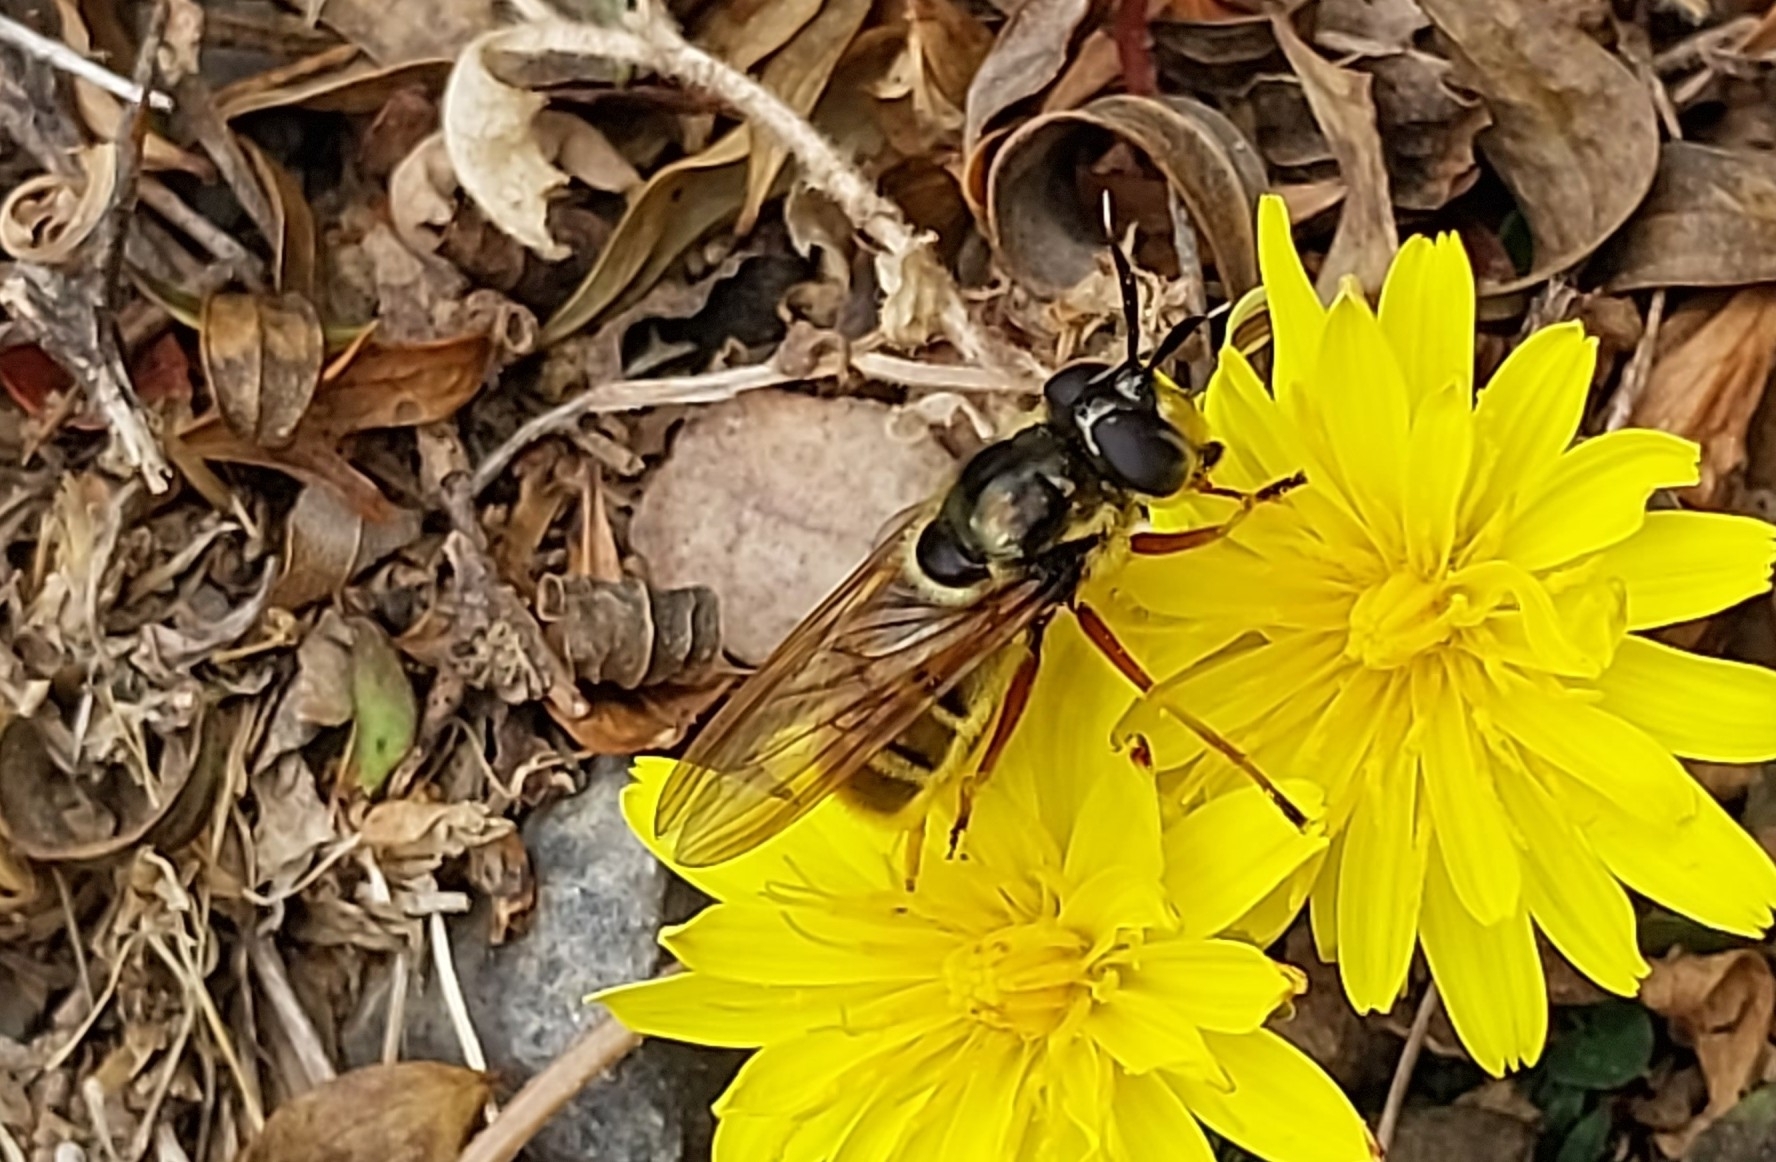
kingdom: Animalia
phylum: Arthropoda
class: Insecta
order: Diptera
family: Syrphidae
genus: Callicera
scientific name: Callicera spinolae
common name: Golden hoverfly
